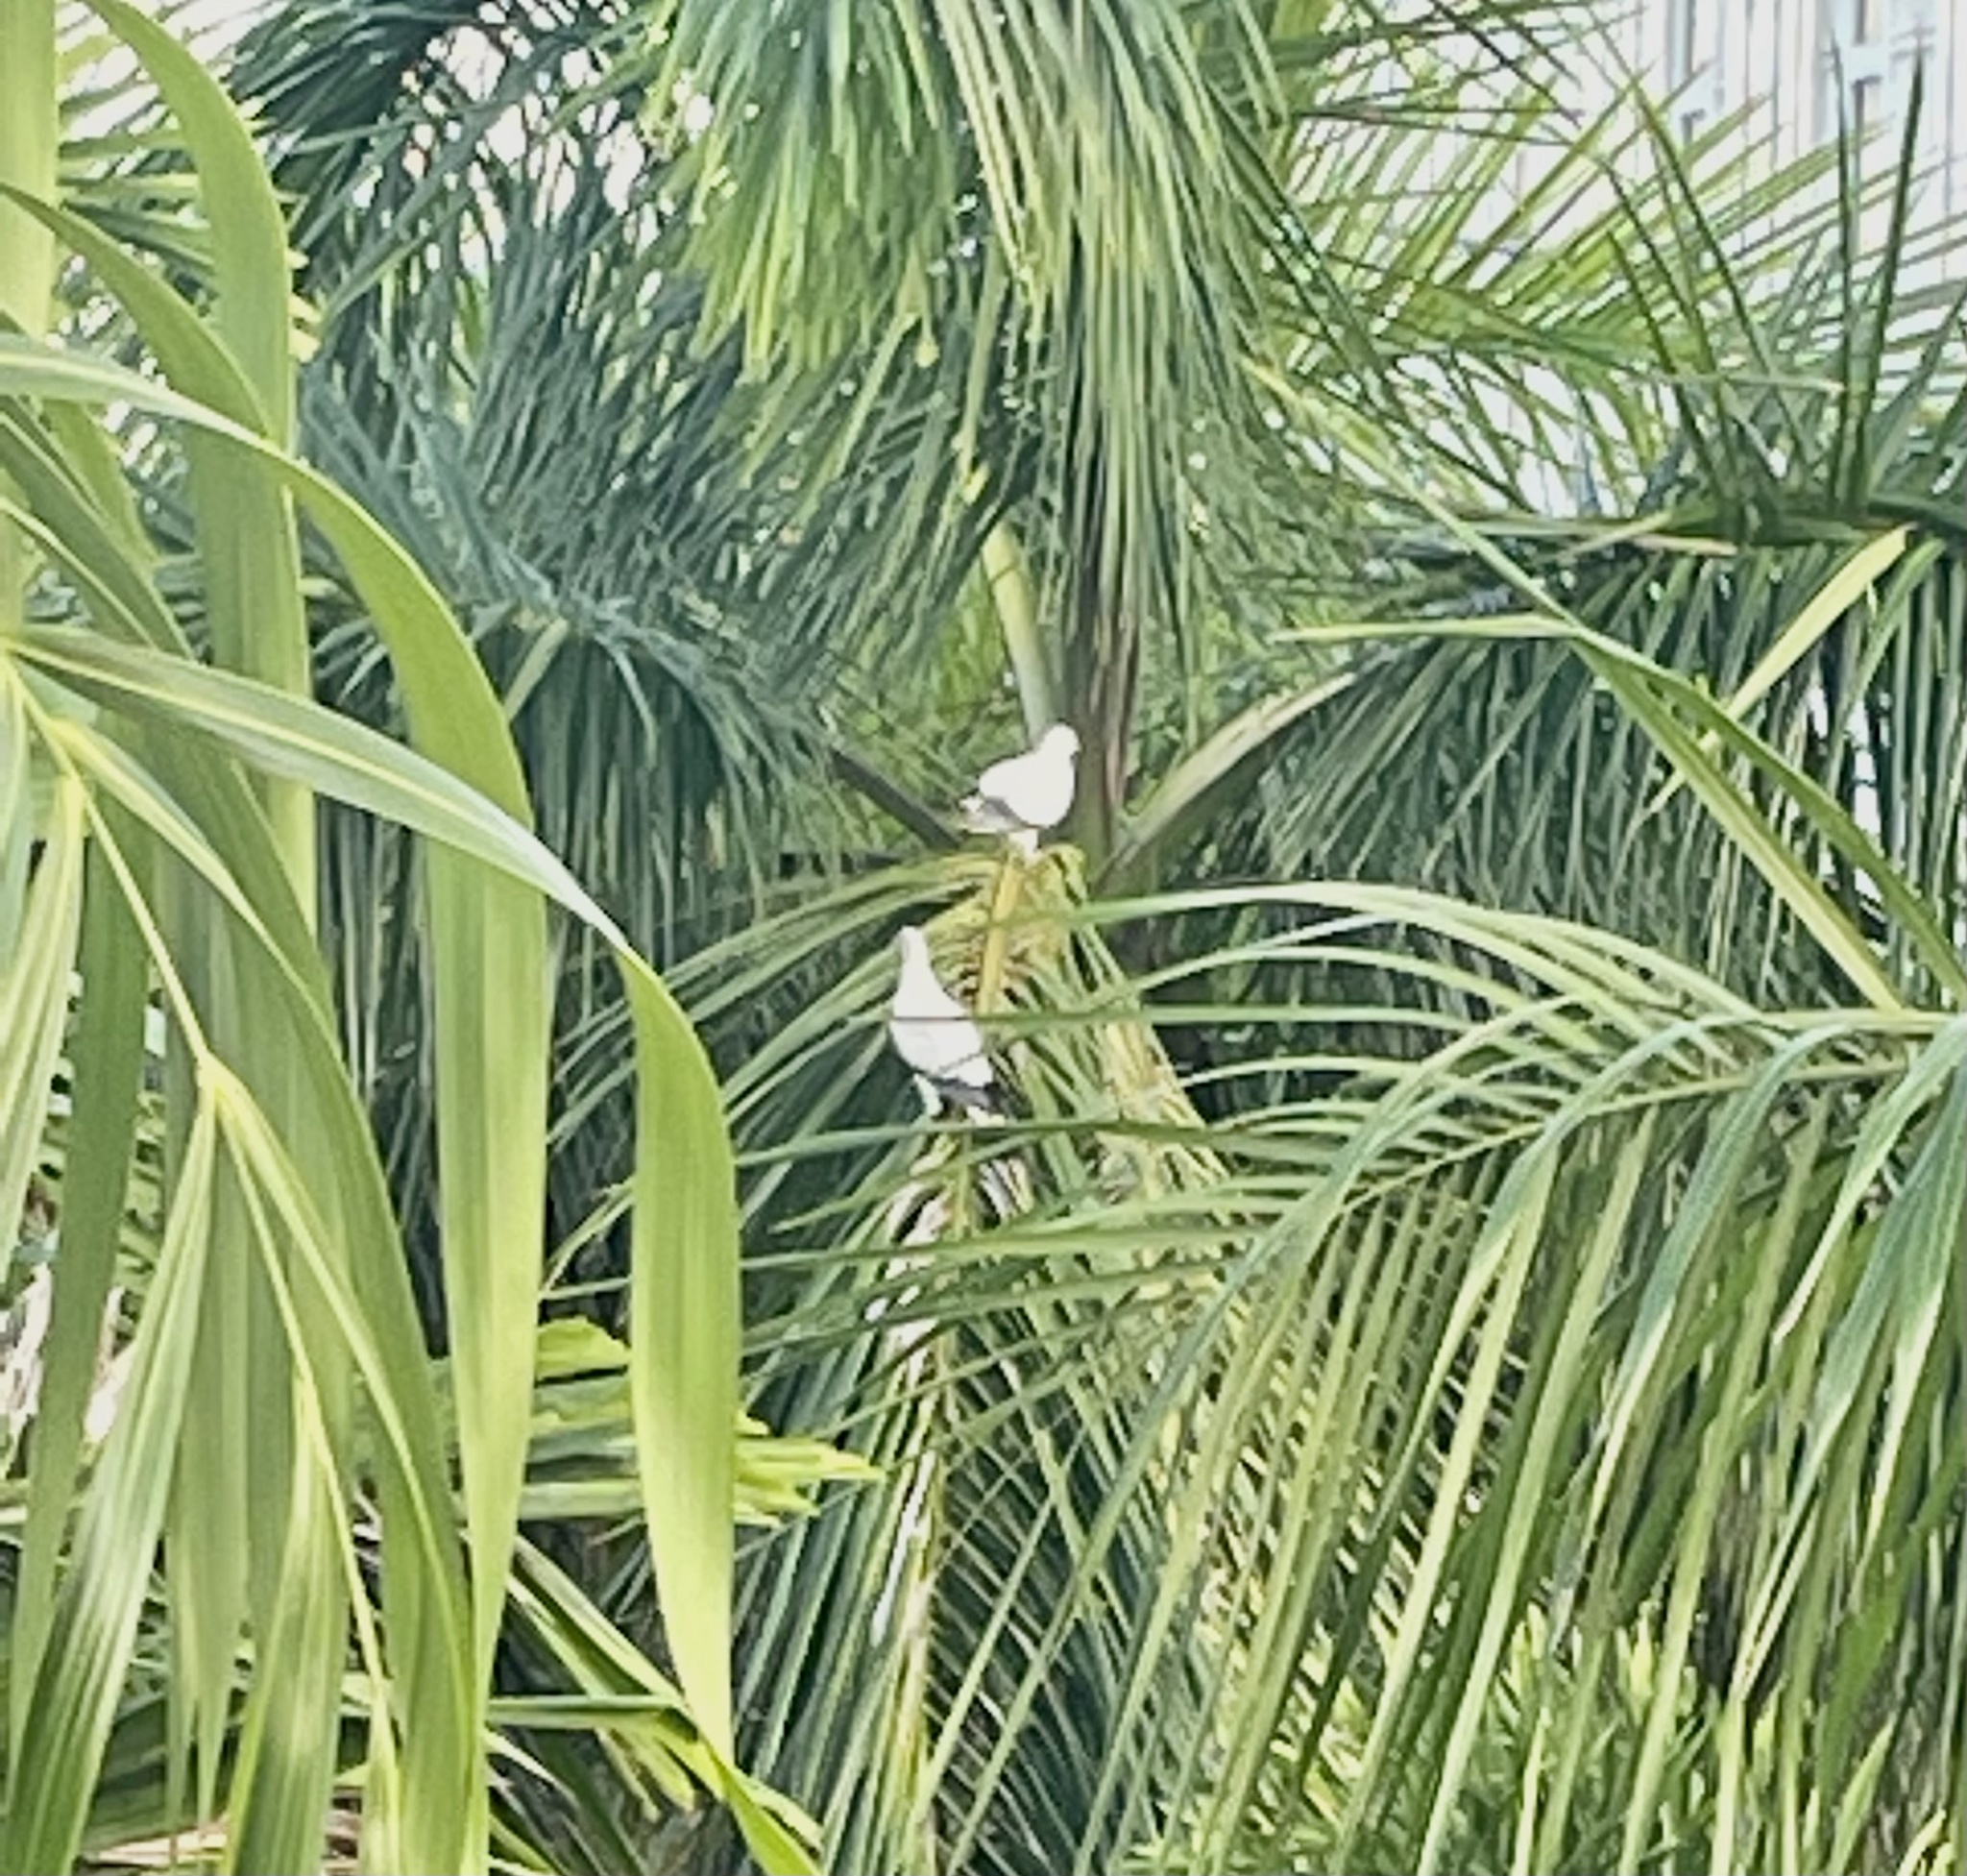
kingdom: Animalia
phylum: Chordata
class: Aves
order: Columbiformes
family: Columbidae
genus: Ducula
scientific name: Ducula spilorrhoa
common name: Torresian imperial pigeon
